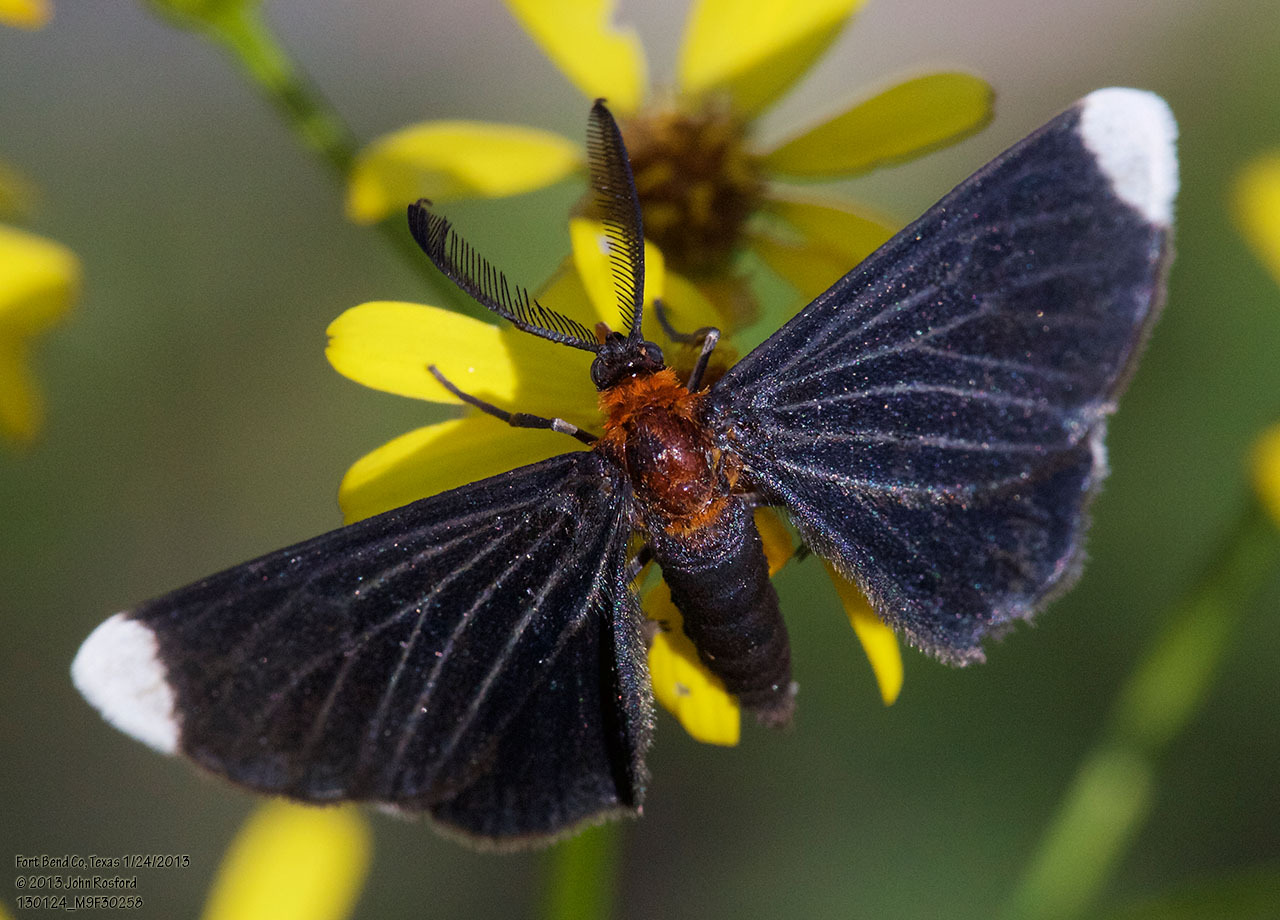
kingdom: Animalia
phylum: Arthropoda
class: Insecta
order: Lepidoptera
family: Geometridae
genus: Melanchroia
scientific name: Melanchroia chephise
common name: White-tipped black
